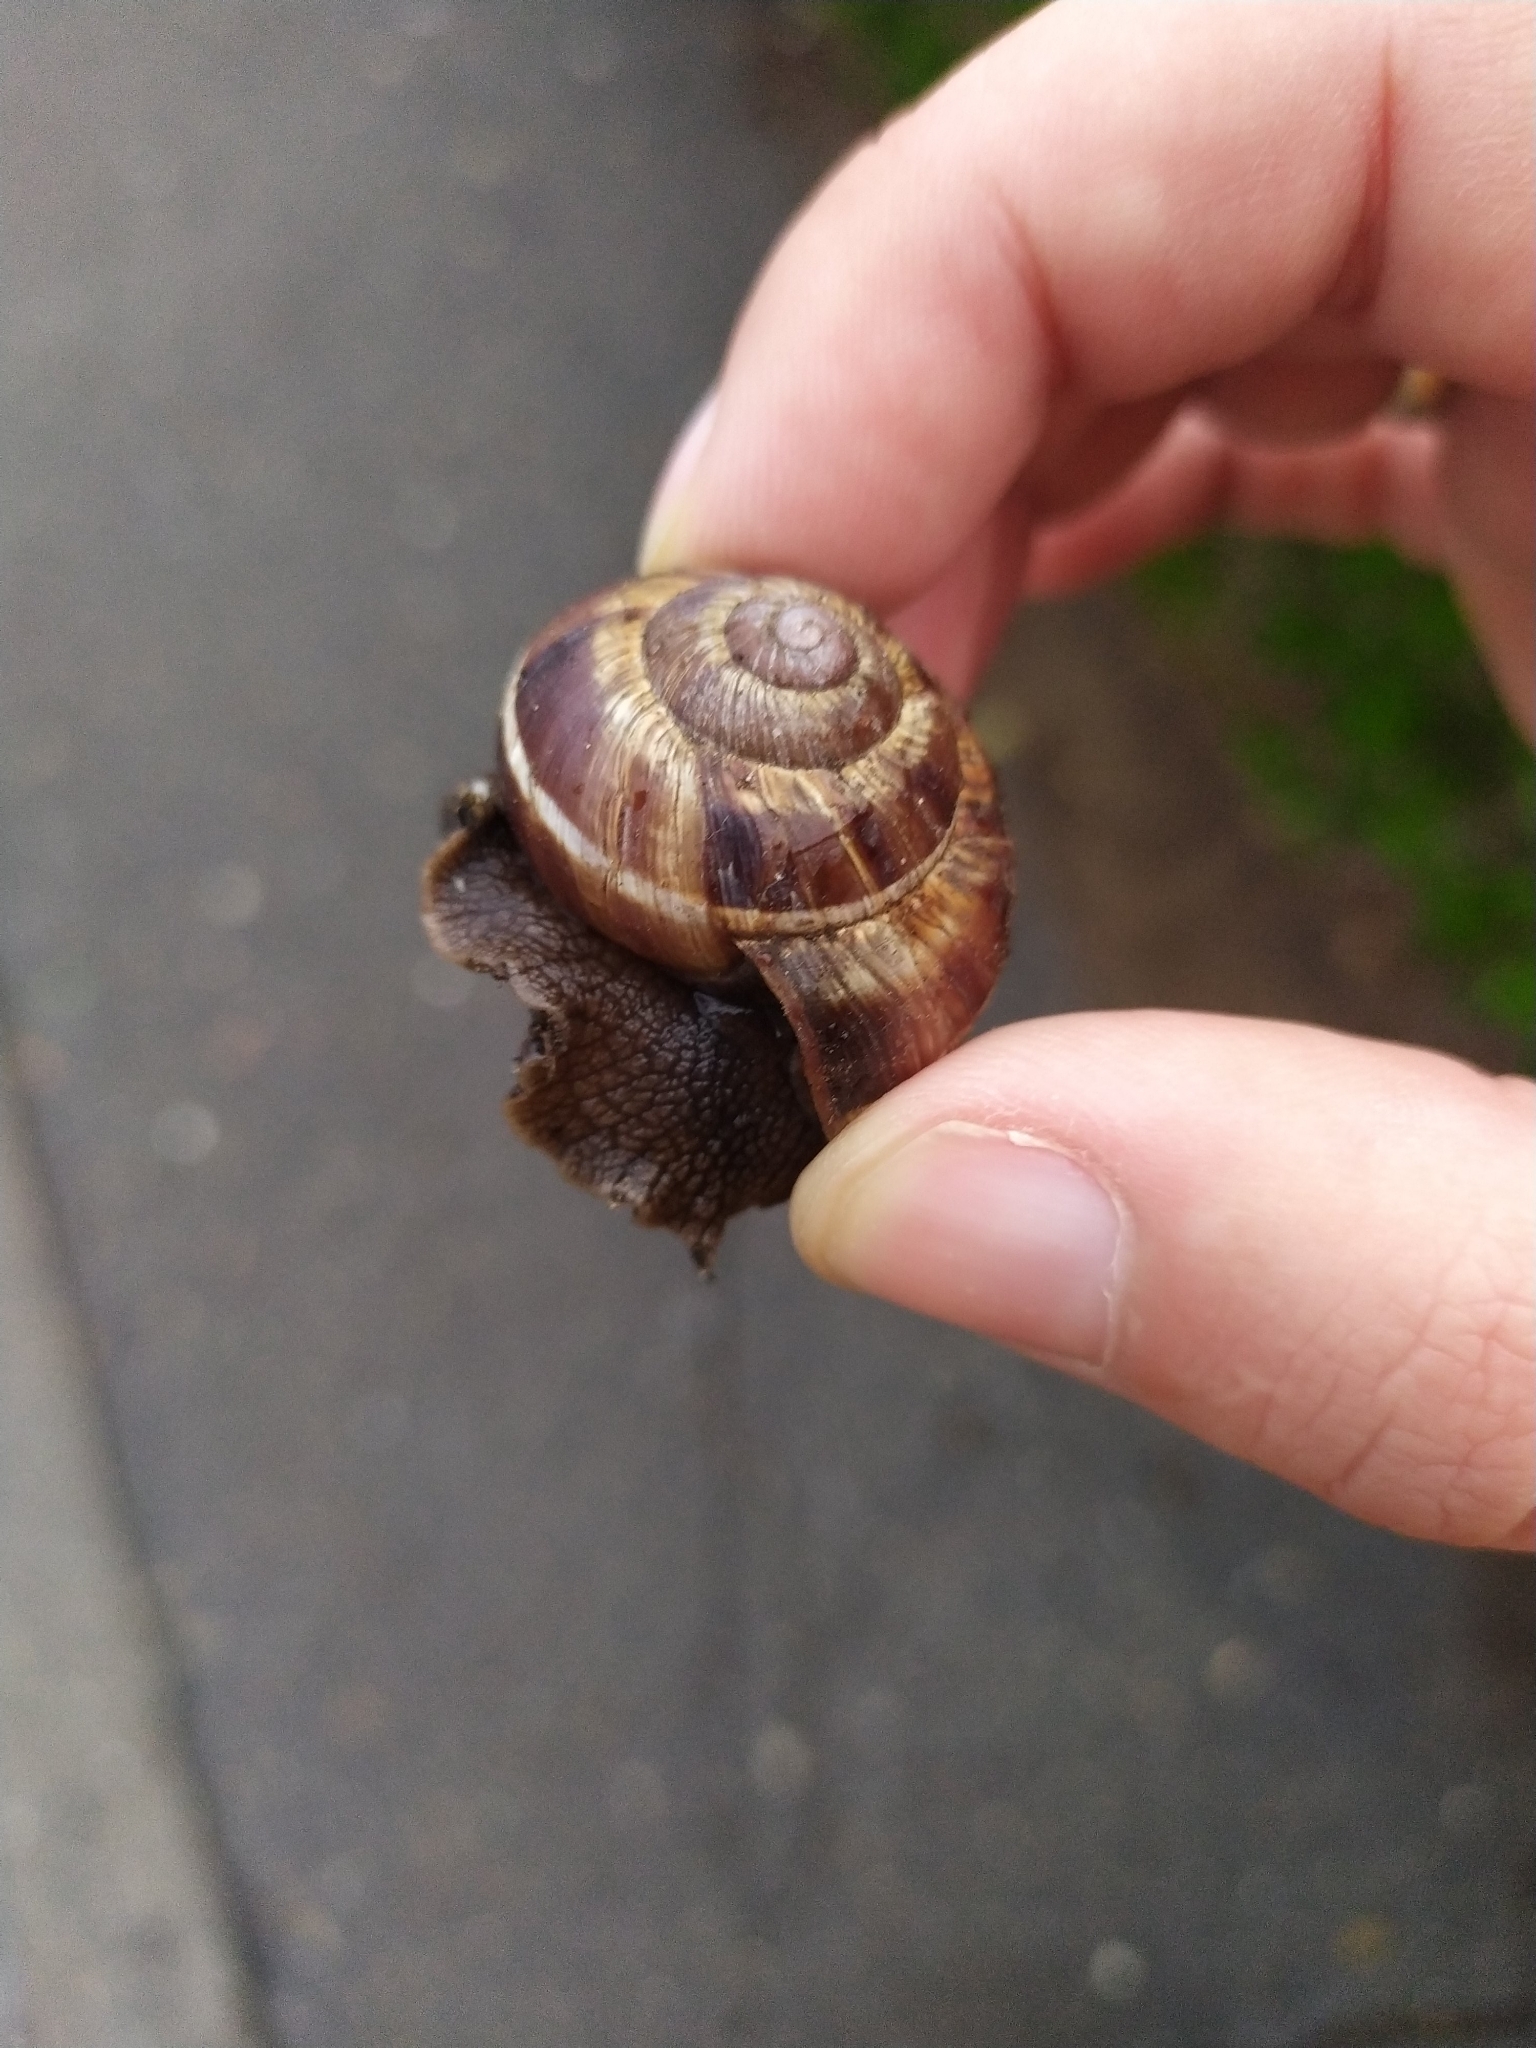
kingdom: Animalia
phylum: Mollusca
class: Gastropoda
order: Stylommatophora
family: Helicidae
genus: Helix
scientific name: Helix lucorum
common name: Turkish snail
